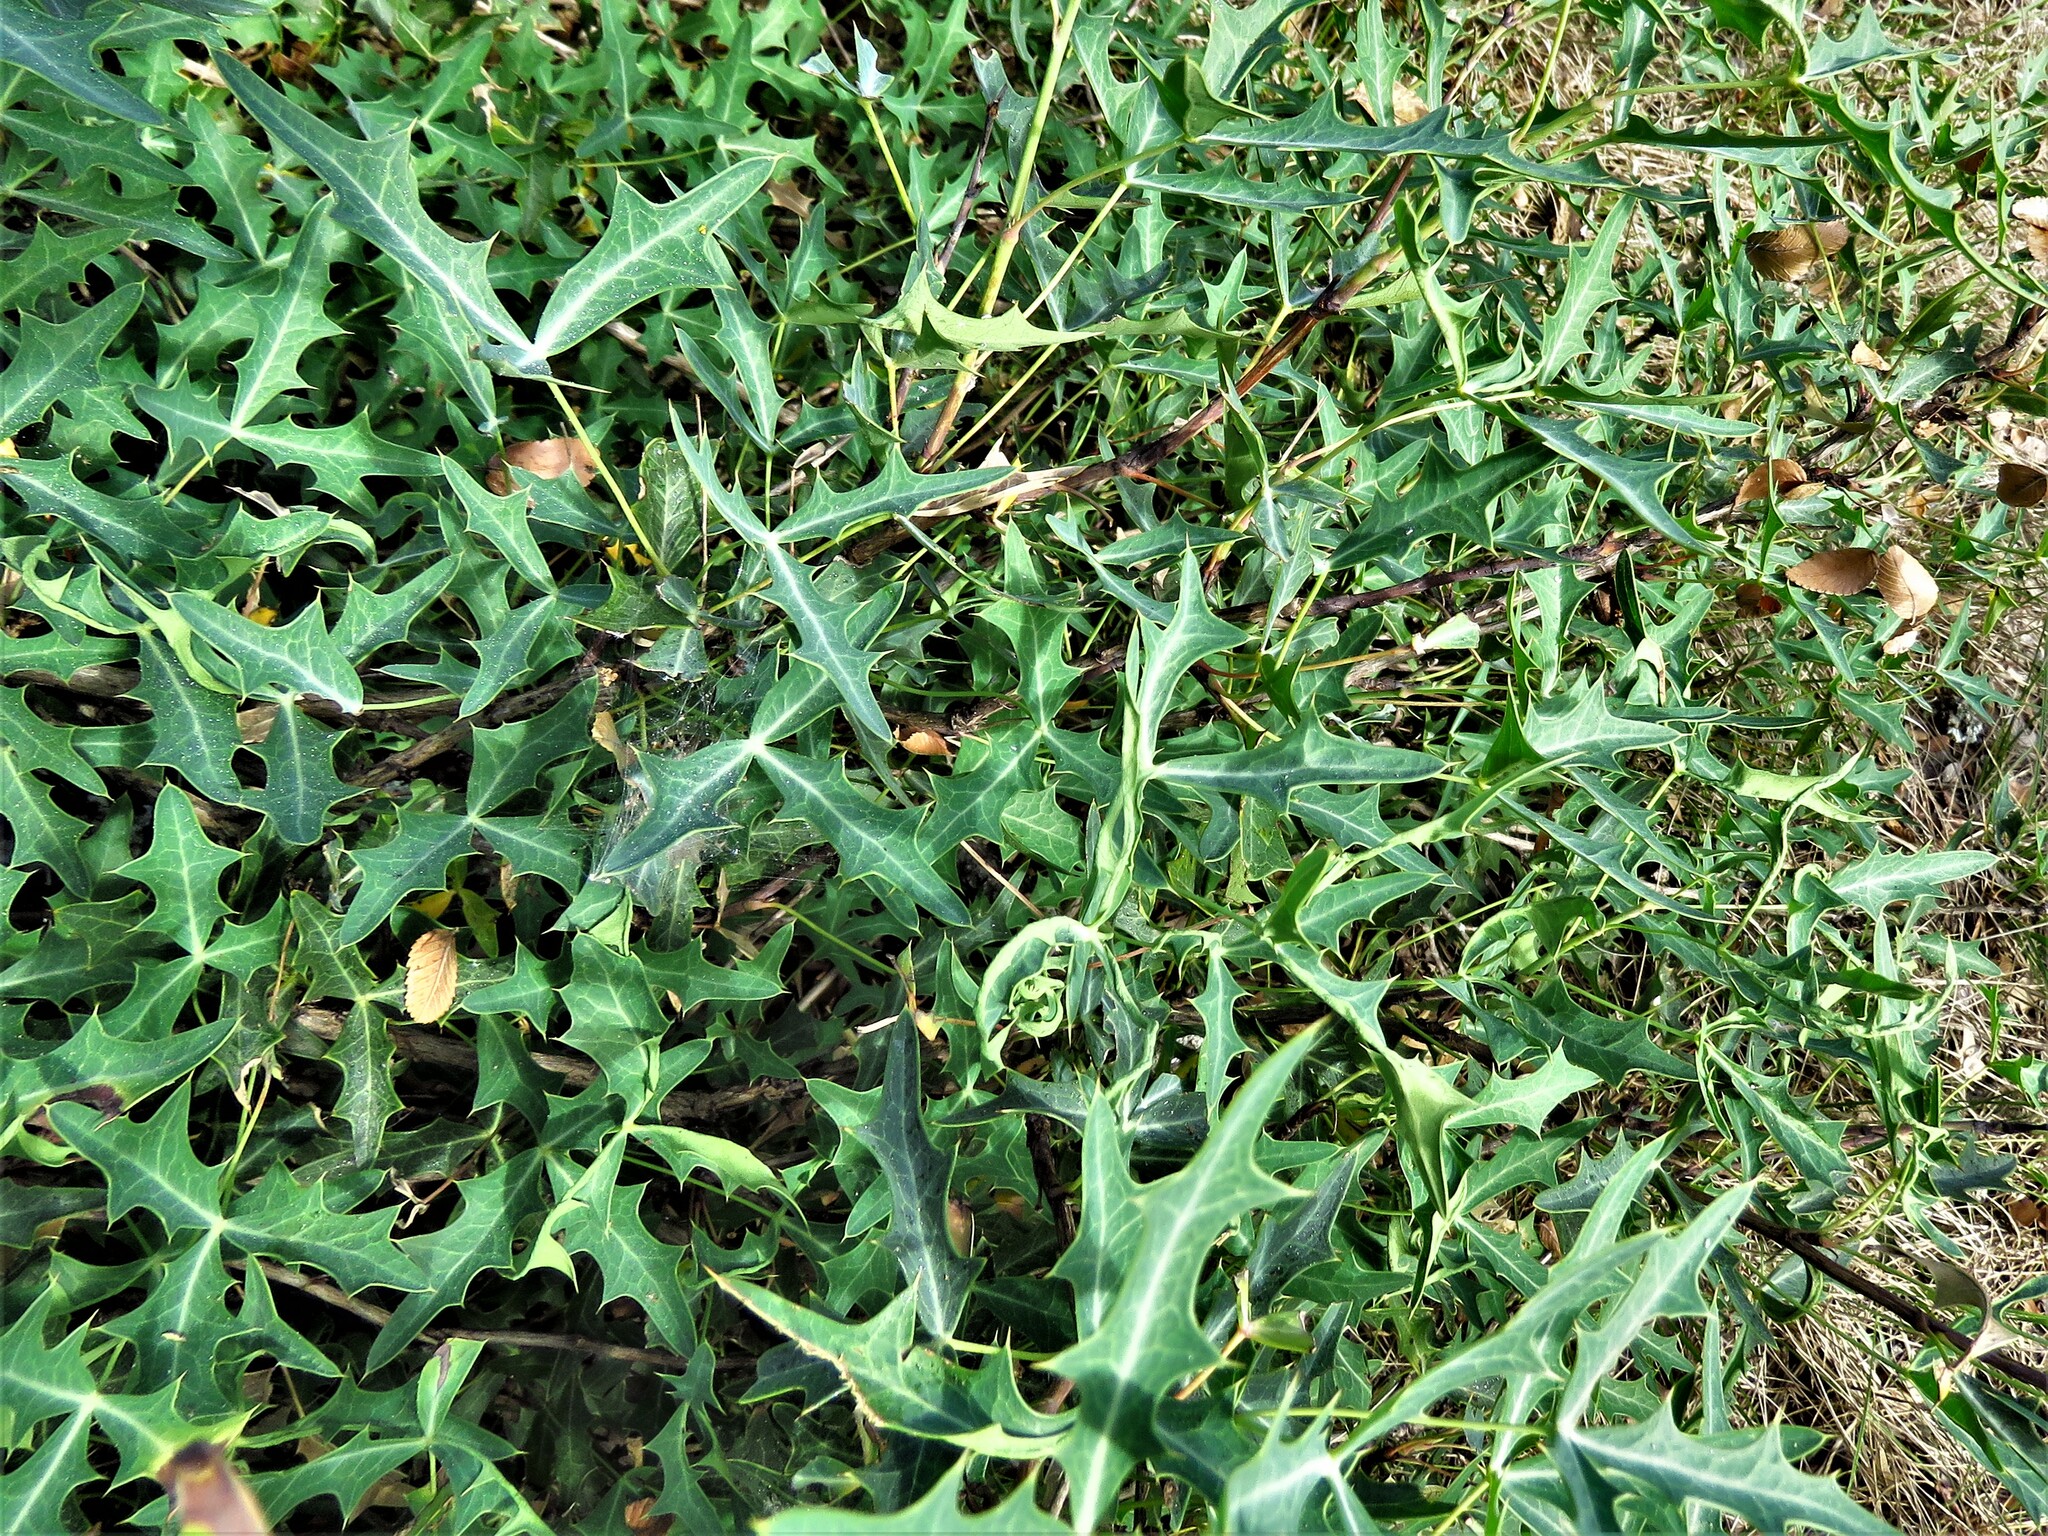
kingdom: Plantae
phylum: Tracheophyta
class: Magnoliopsida
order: Ranunculales
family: Berberidaceae
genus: Alloberberis
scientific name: Alloberberis trifoliolata
